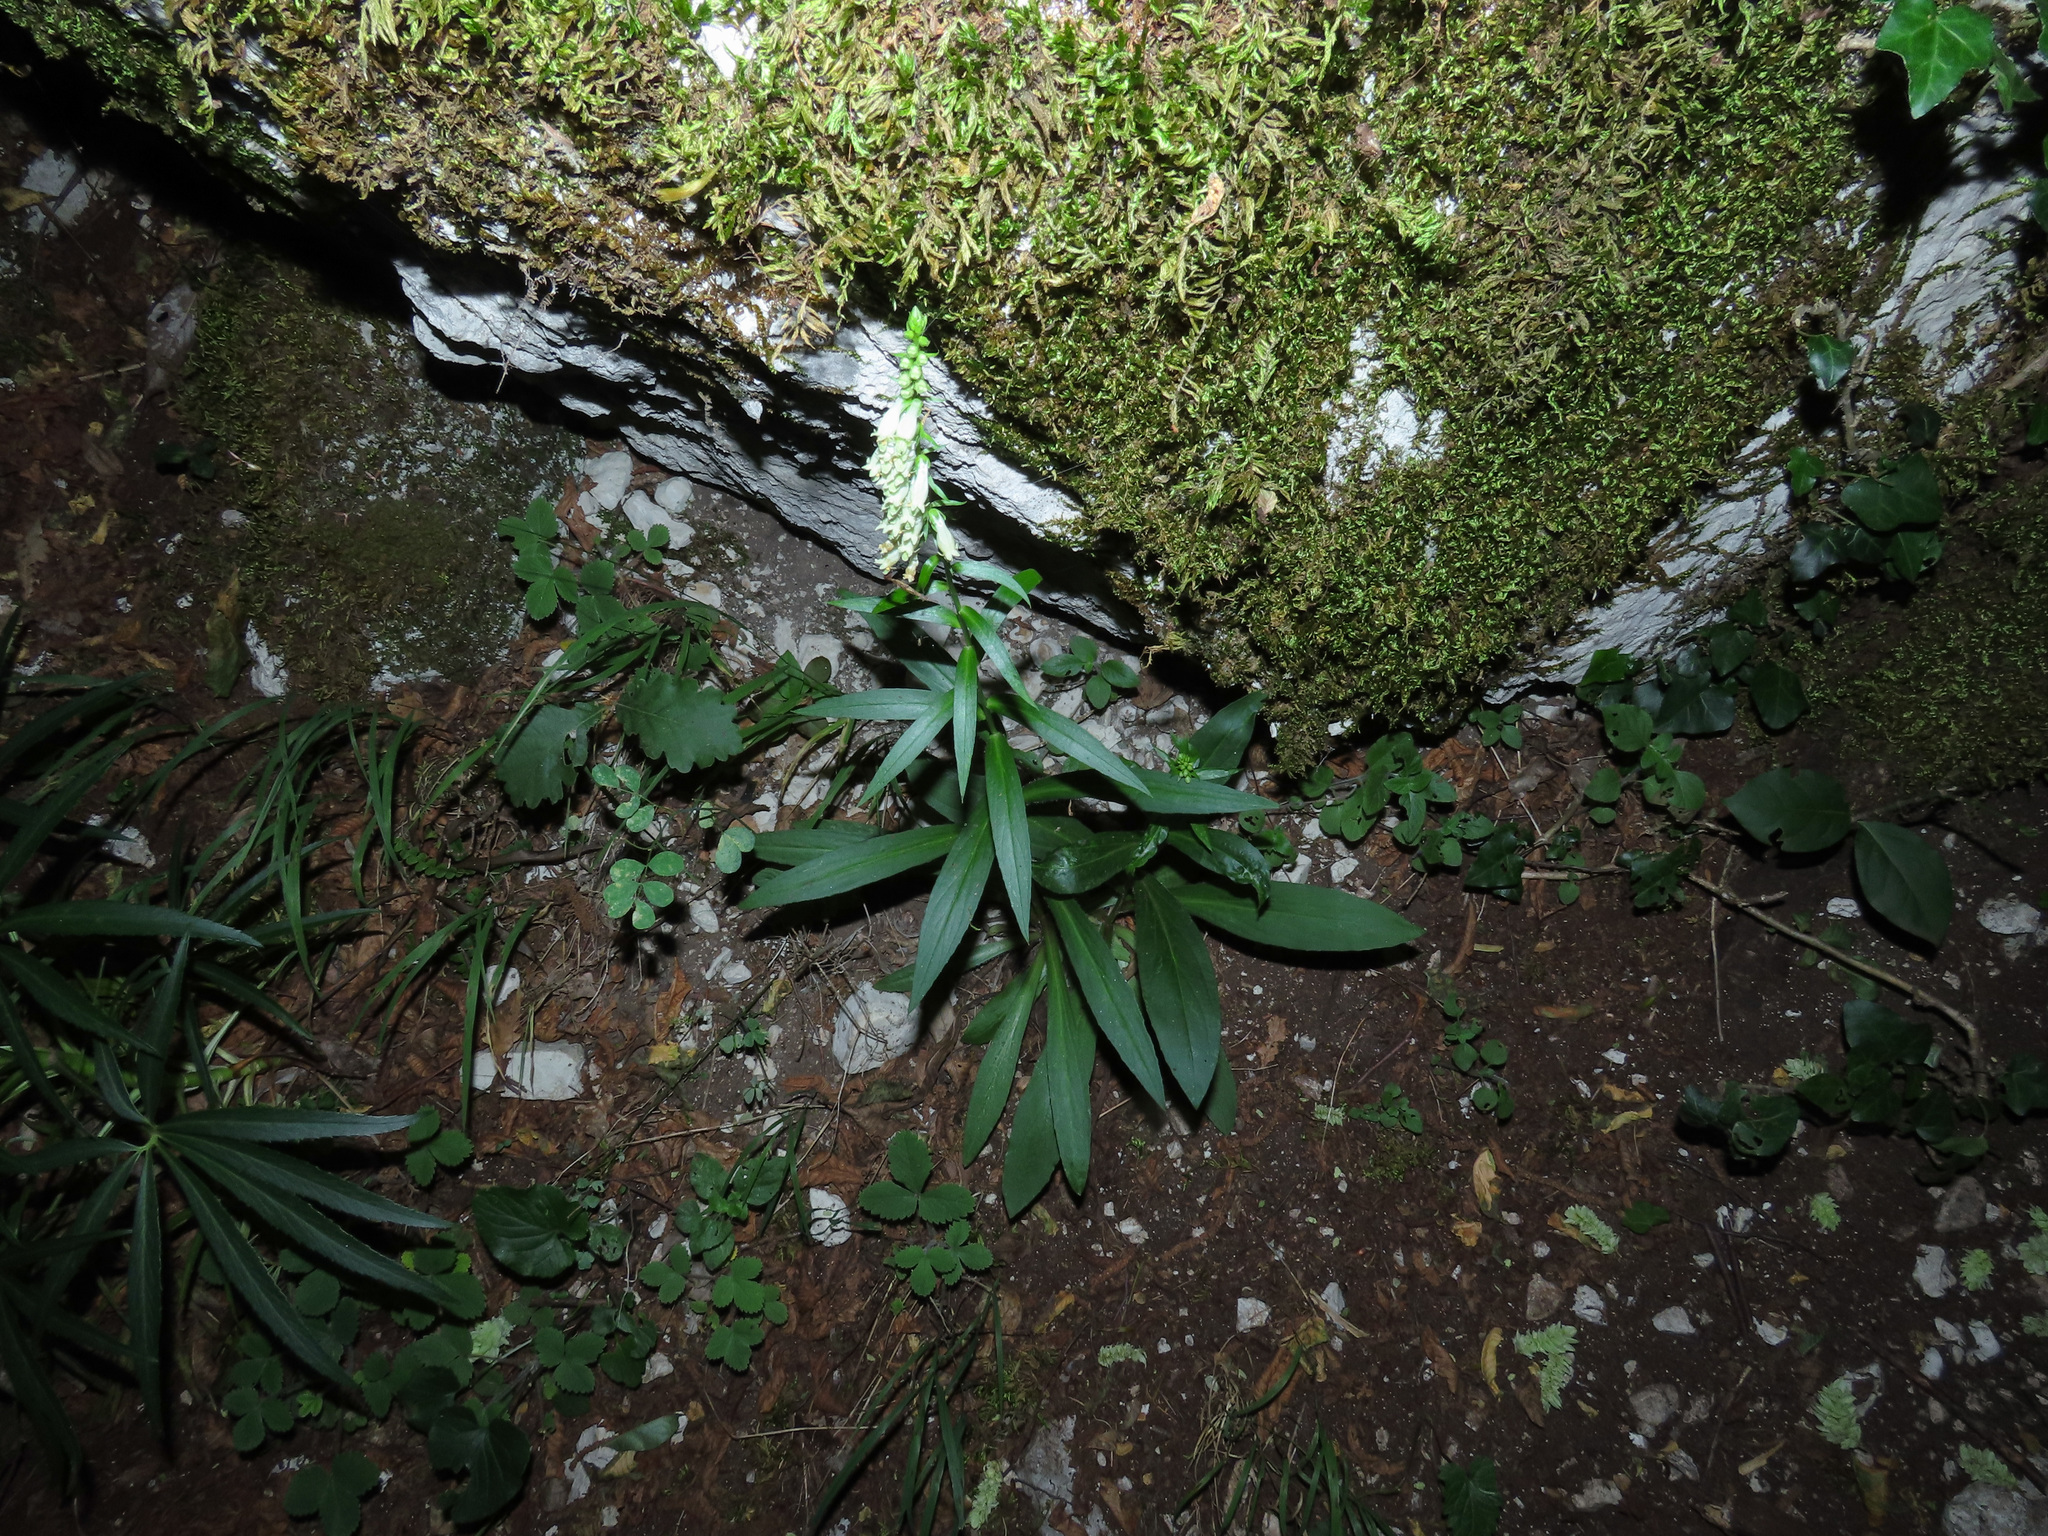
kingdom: Plantae
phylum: Tracheophyta
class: Magnoliopsida
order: Lamiales
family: Plantaginaceae
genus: Digitalis
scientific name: Digitalis lutea
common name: Straw foxglove
